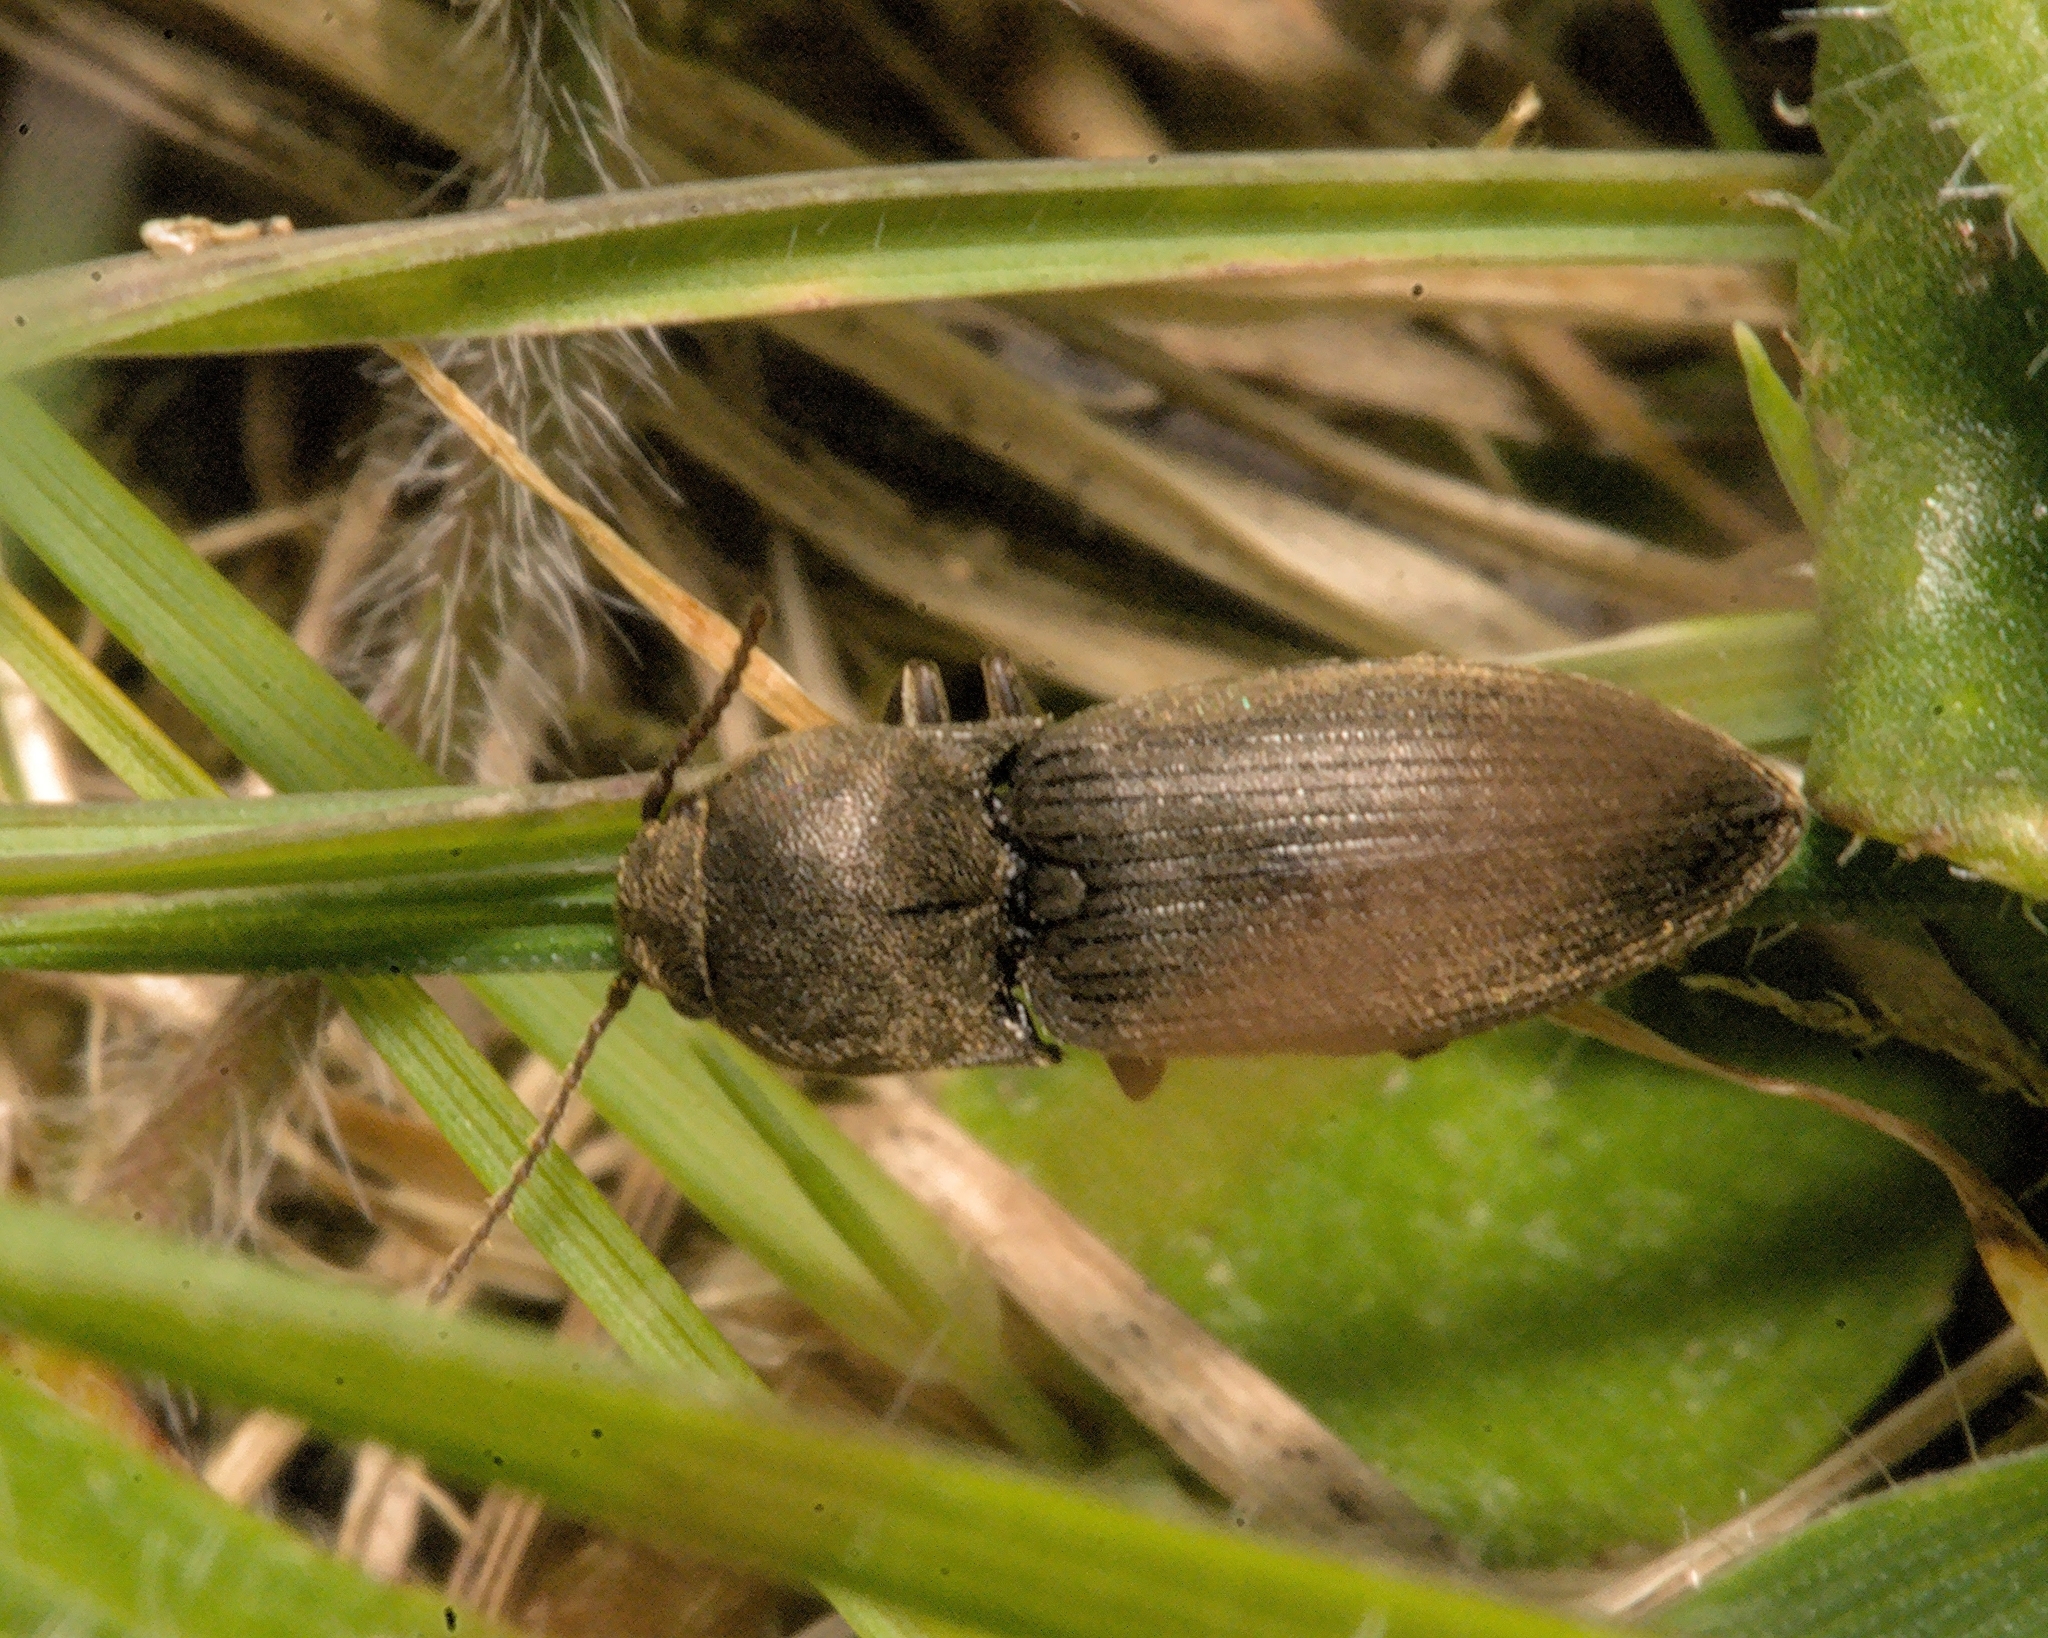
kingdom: Animalia
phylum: Arthropoda
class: Insecta
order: Coleoptera
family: Elateridae
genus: Agriotes
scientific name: Agriotes obscurus
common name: Dusky wireworm
